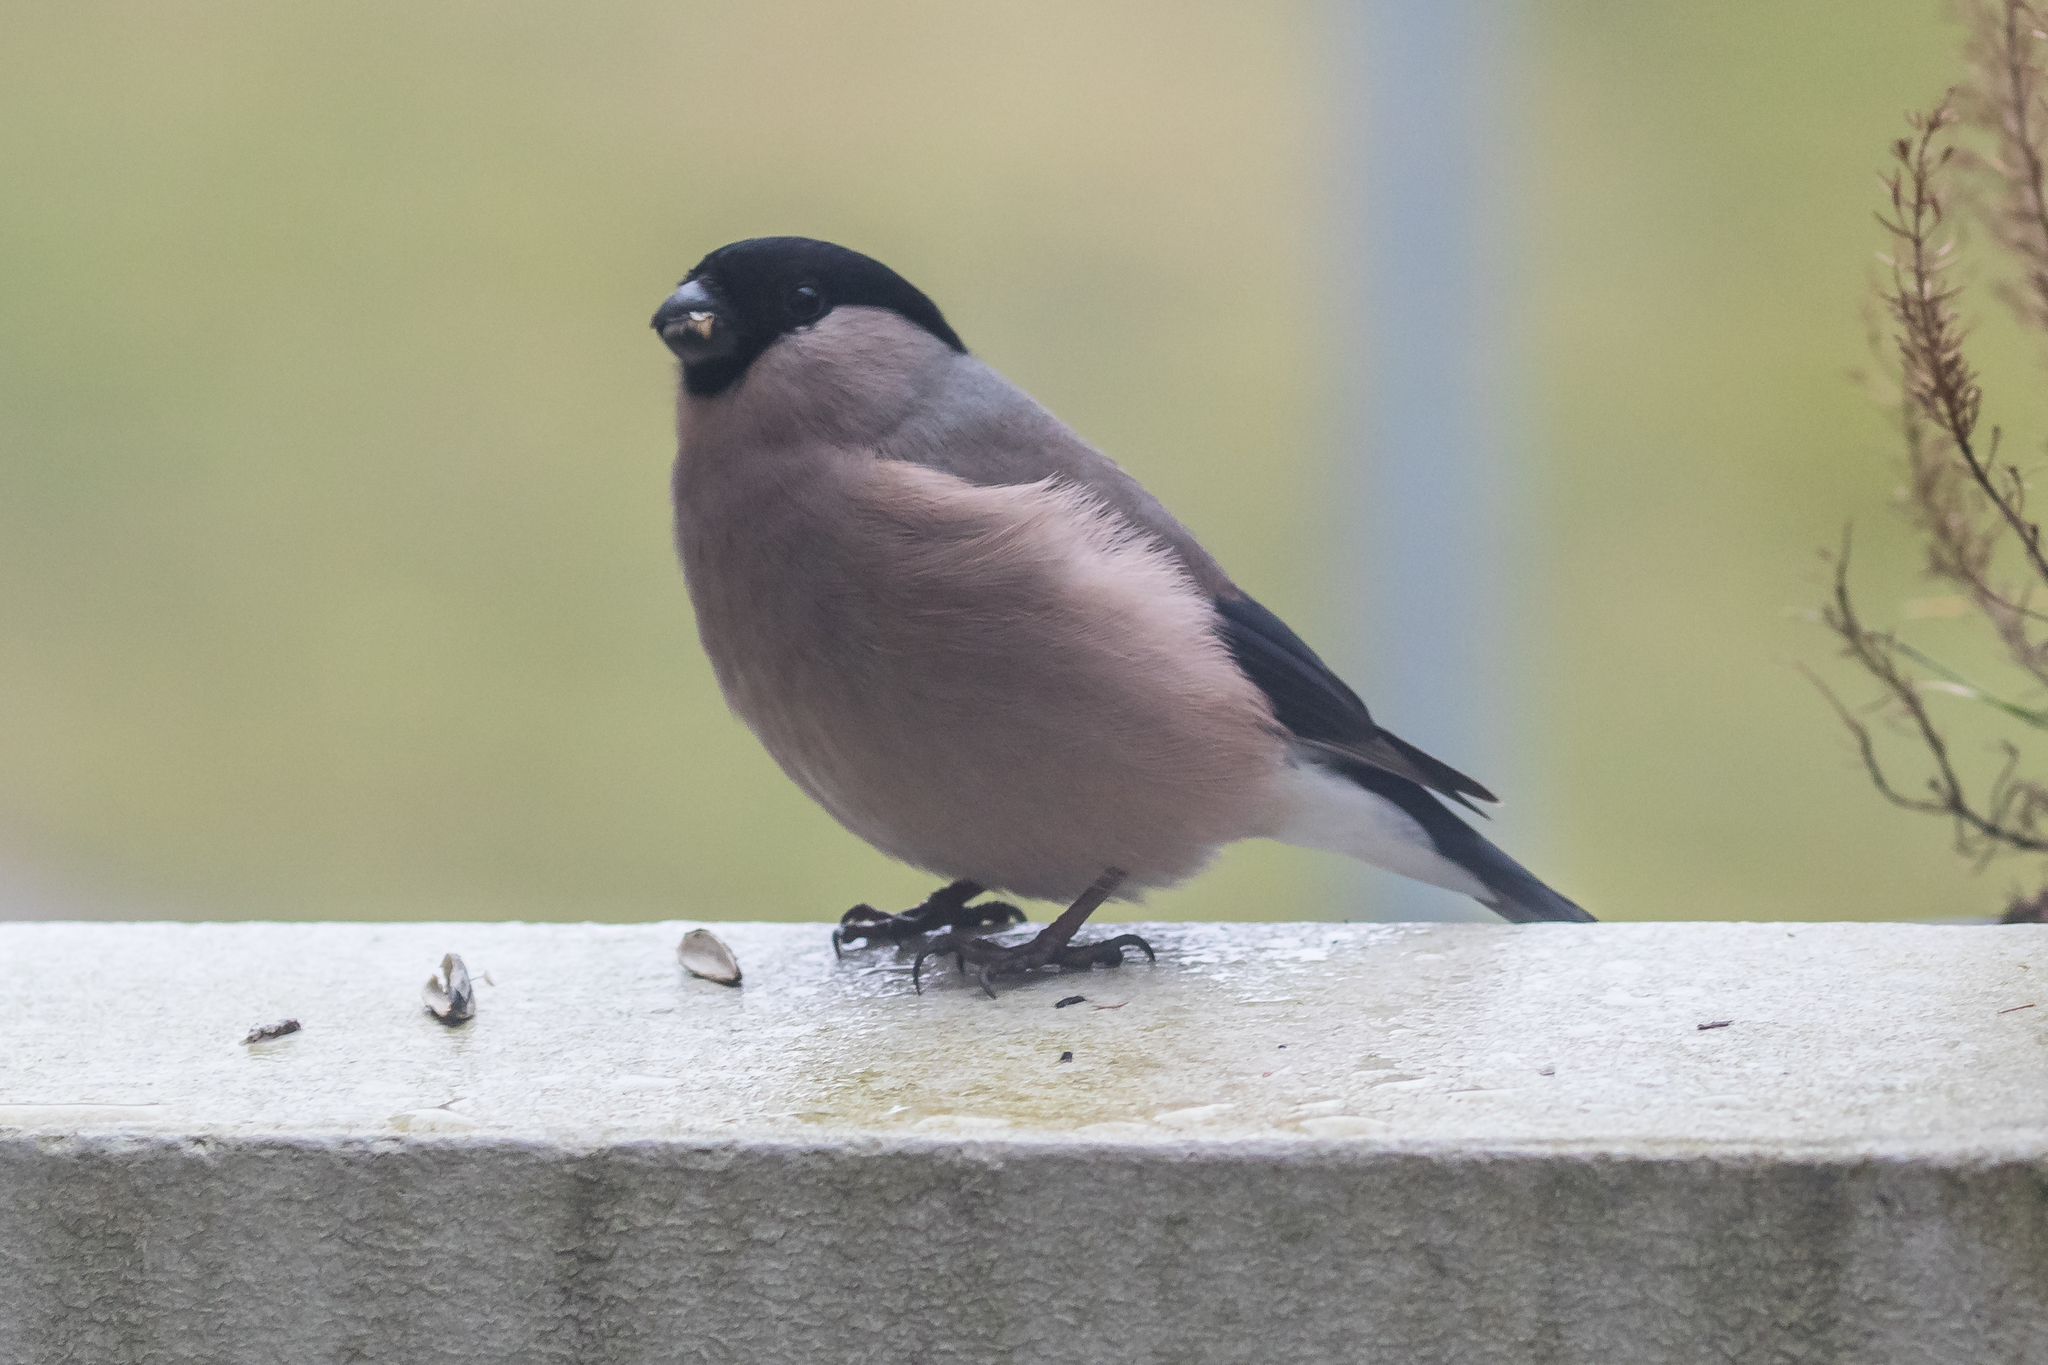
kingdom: Animalia
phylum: Chordata
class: Aves
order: Passeriformes
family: Fringillidae
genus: Pyrrhula
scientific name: Pyrrhula pyrrhula
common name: Eurasian bullfinch
